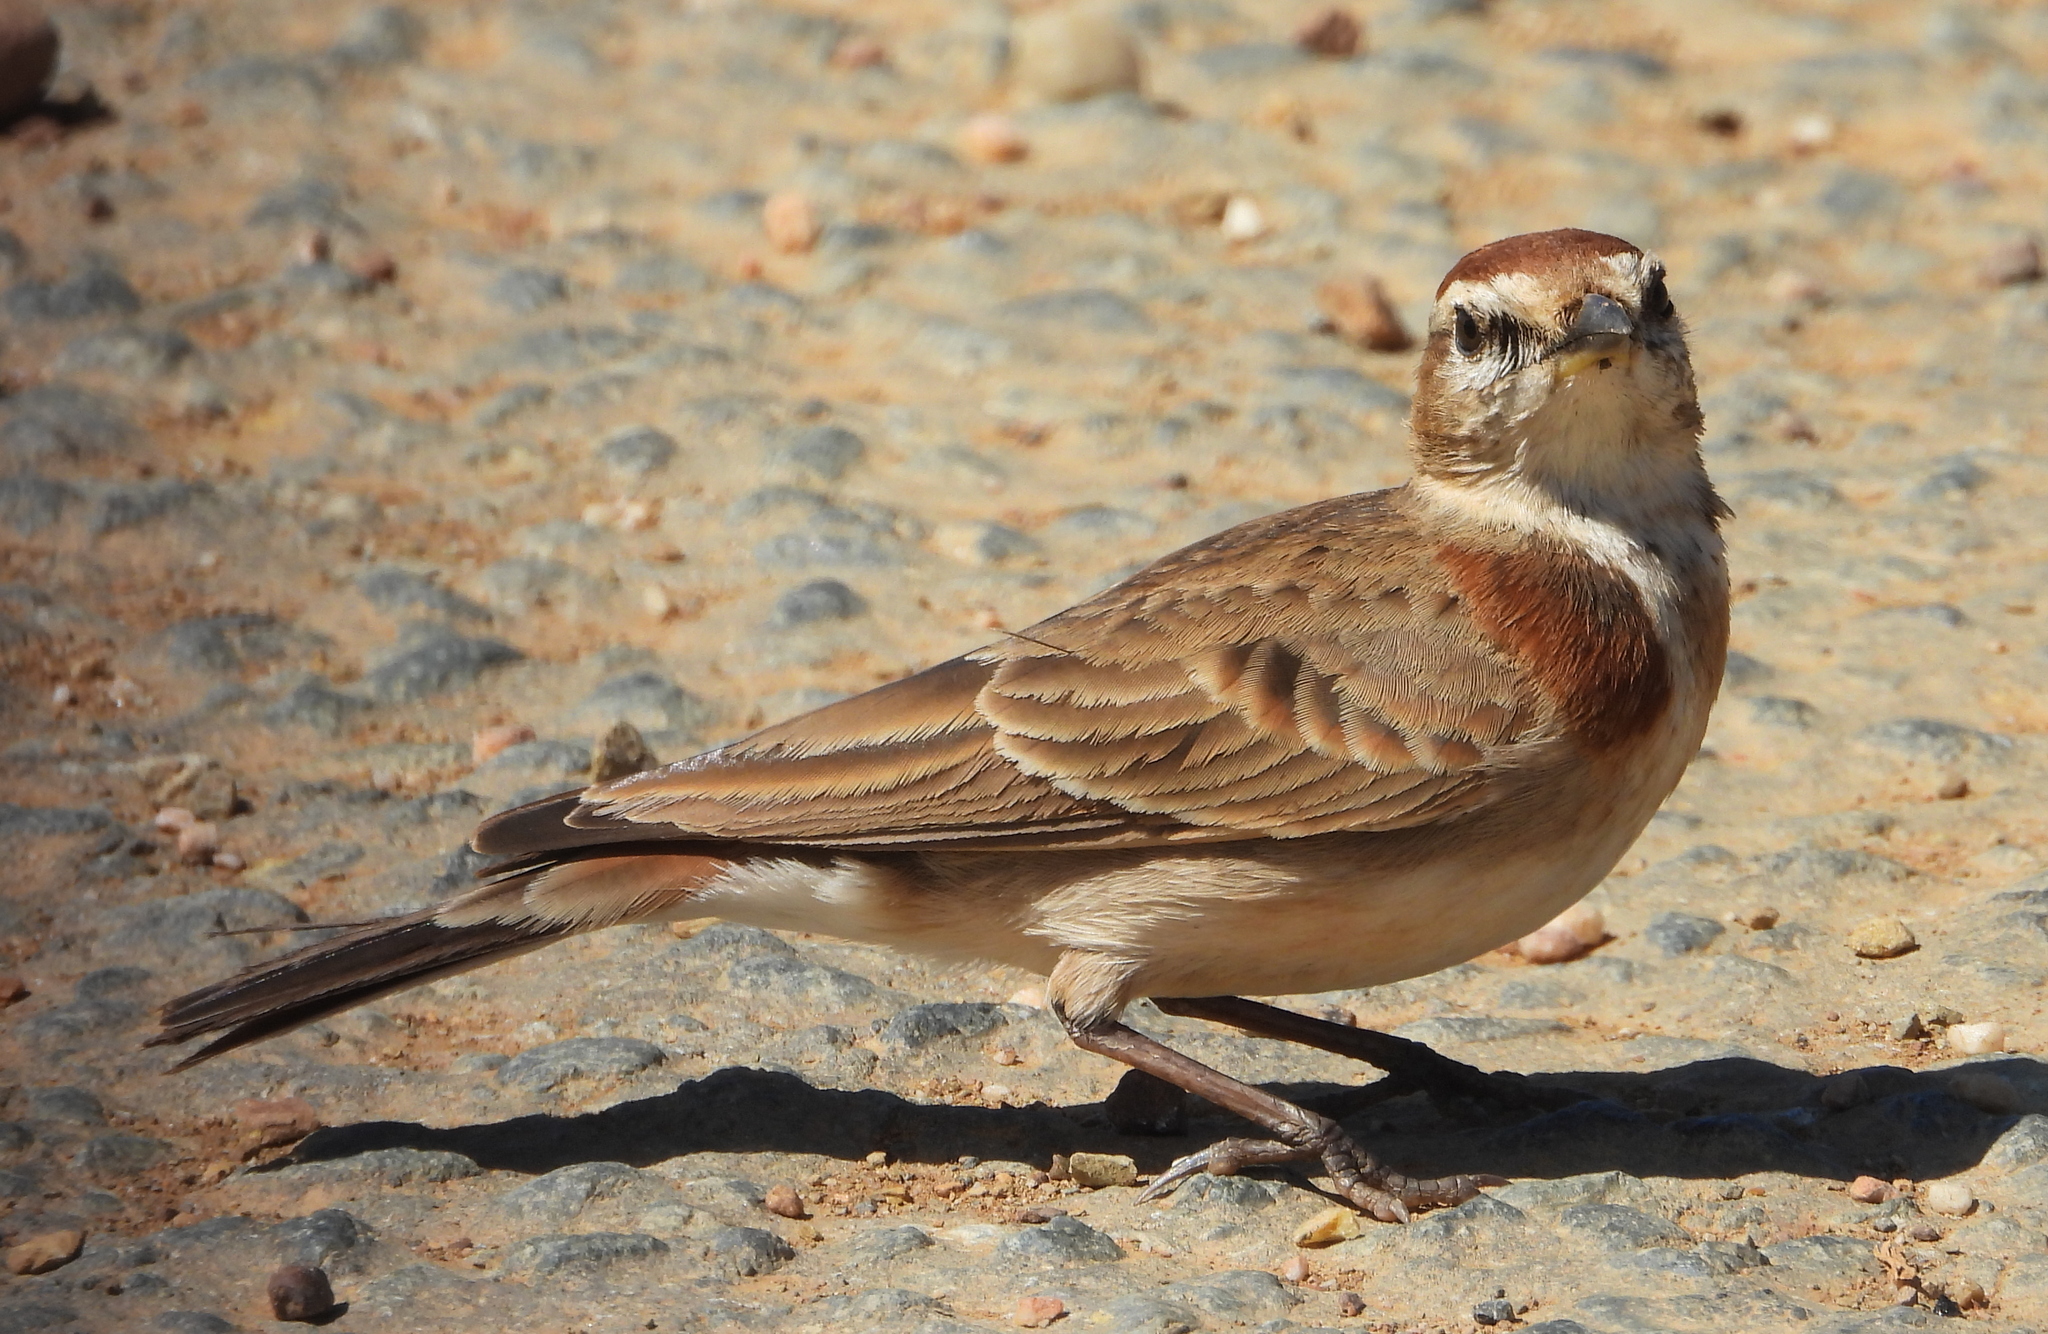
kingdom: Animalia
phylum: Chordata
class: Aves
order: Passeriformes
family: Alaudidae
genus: Calandrella
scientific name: Calandrella cinerea
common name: Red-capped lark
